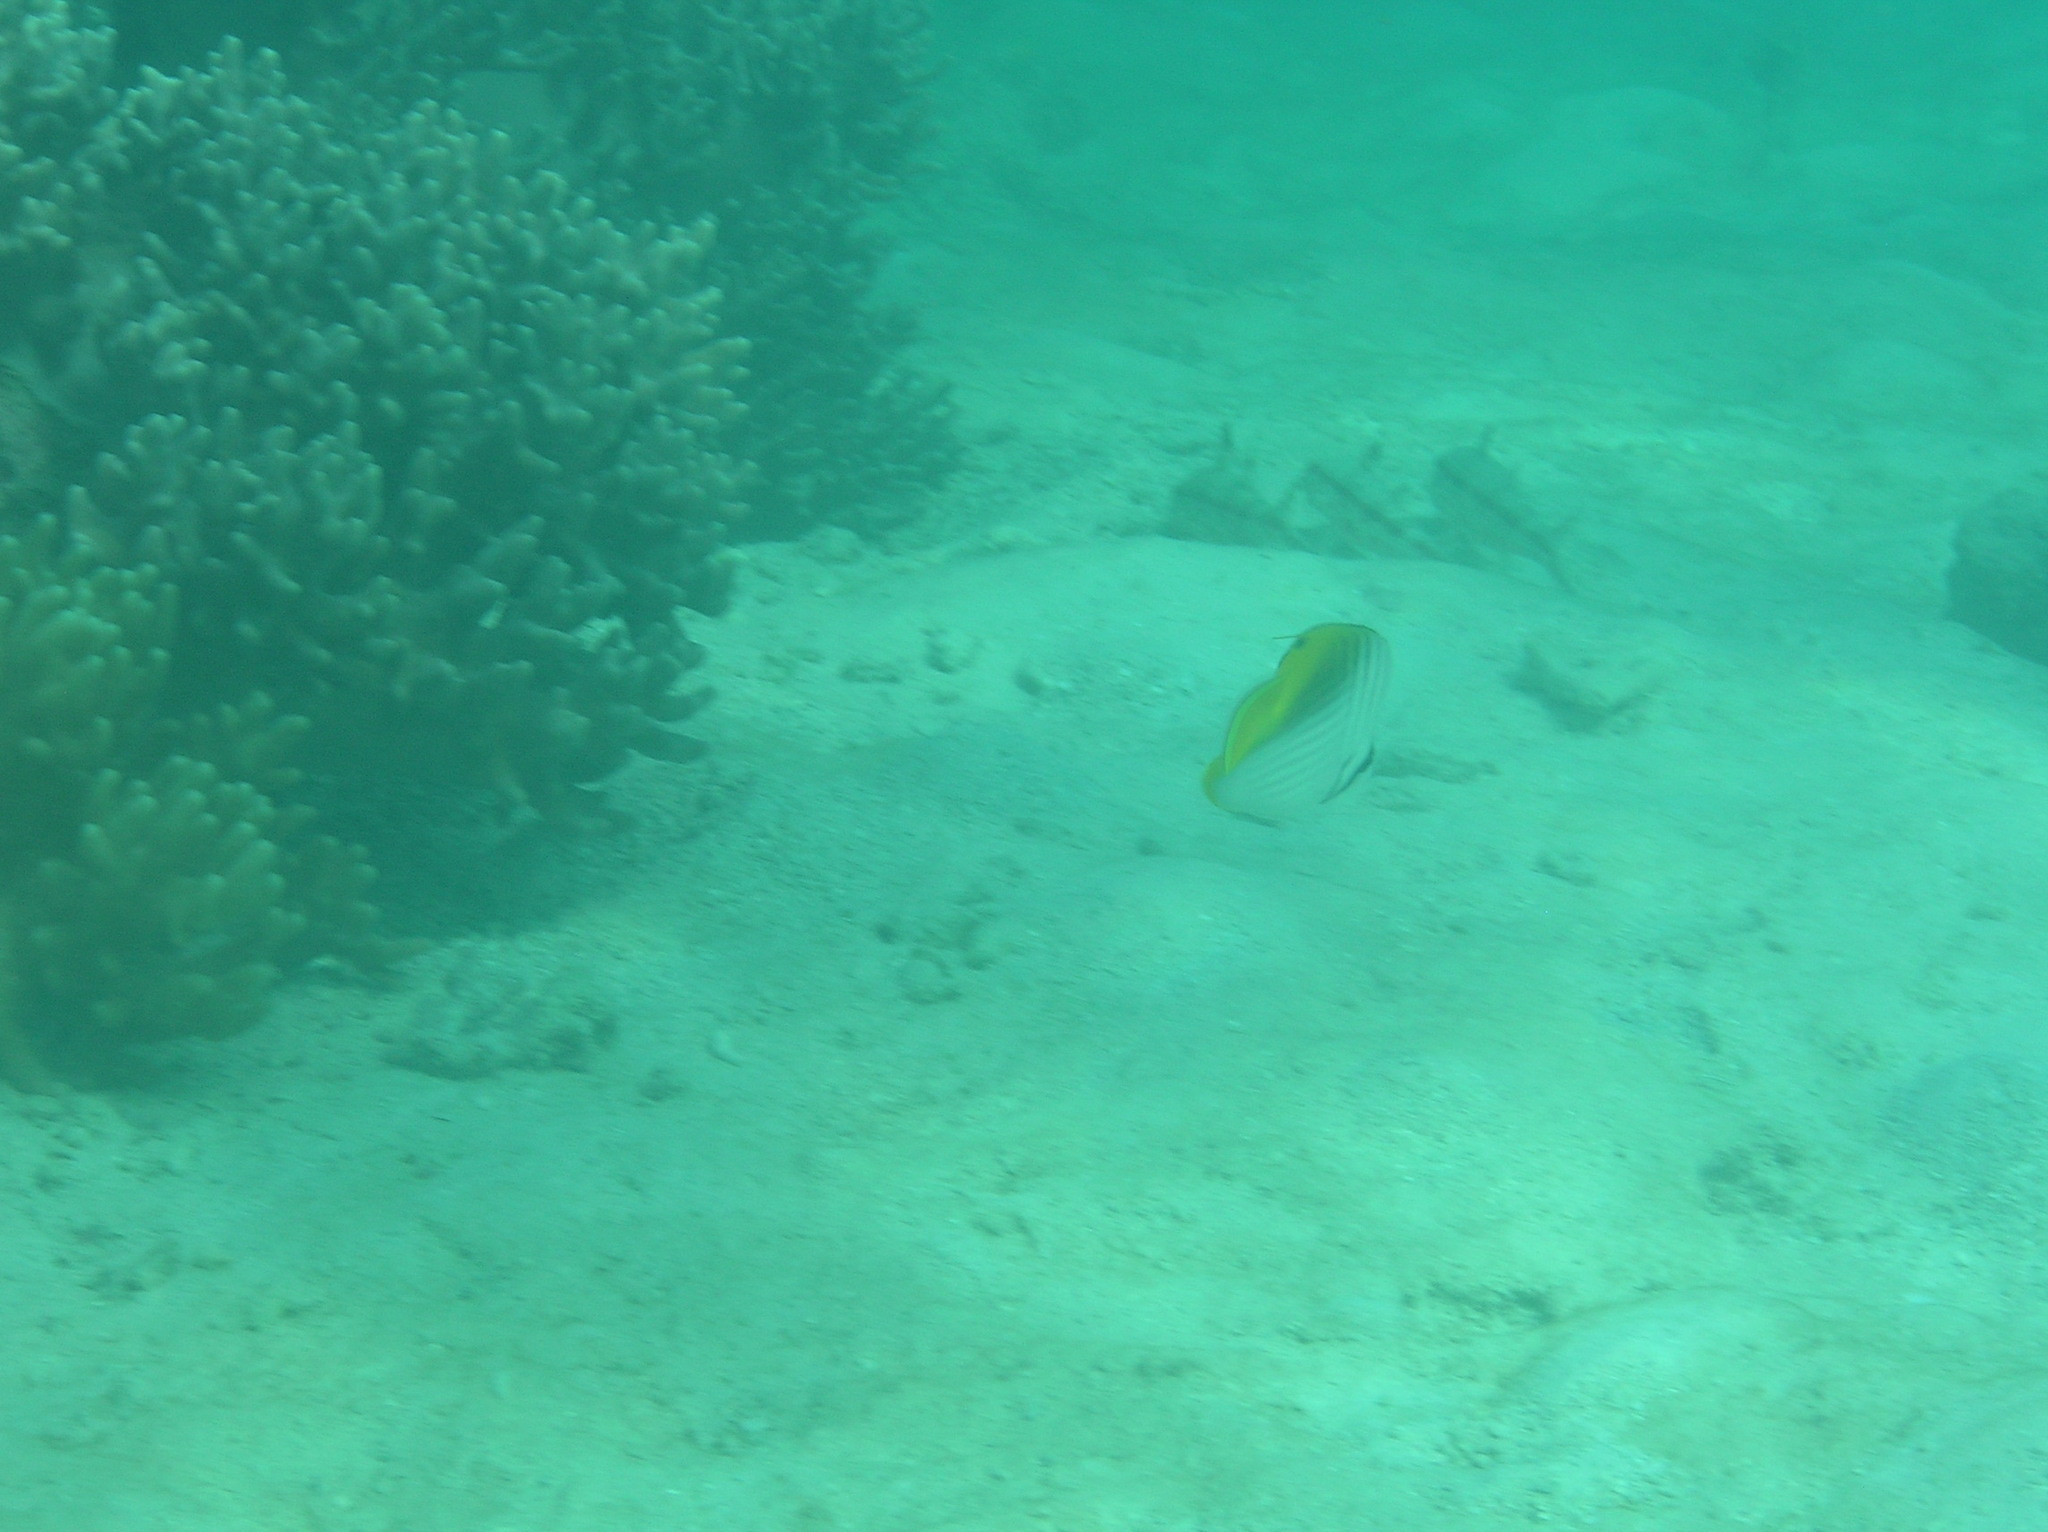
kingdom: Animalia
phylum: Chordata
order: Perciformes
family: Chaetodontidae
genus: Chaetodon
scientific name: Chaetodon auriga
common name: Threadfin butterflyfish
